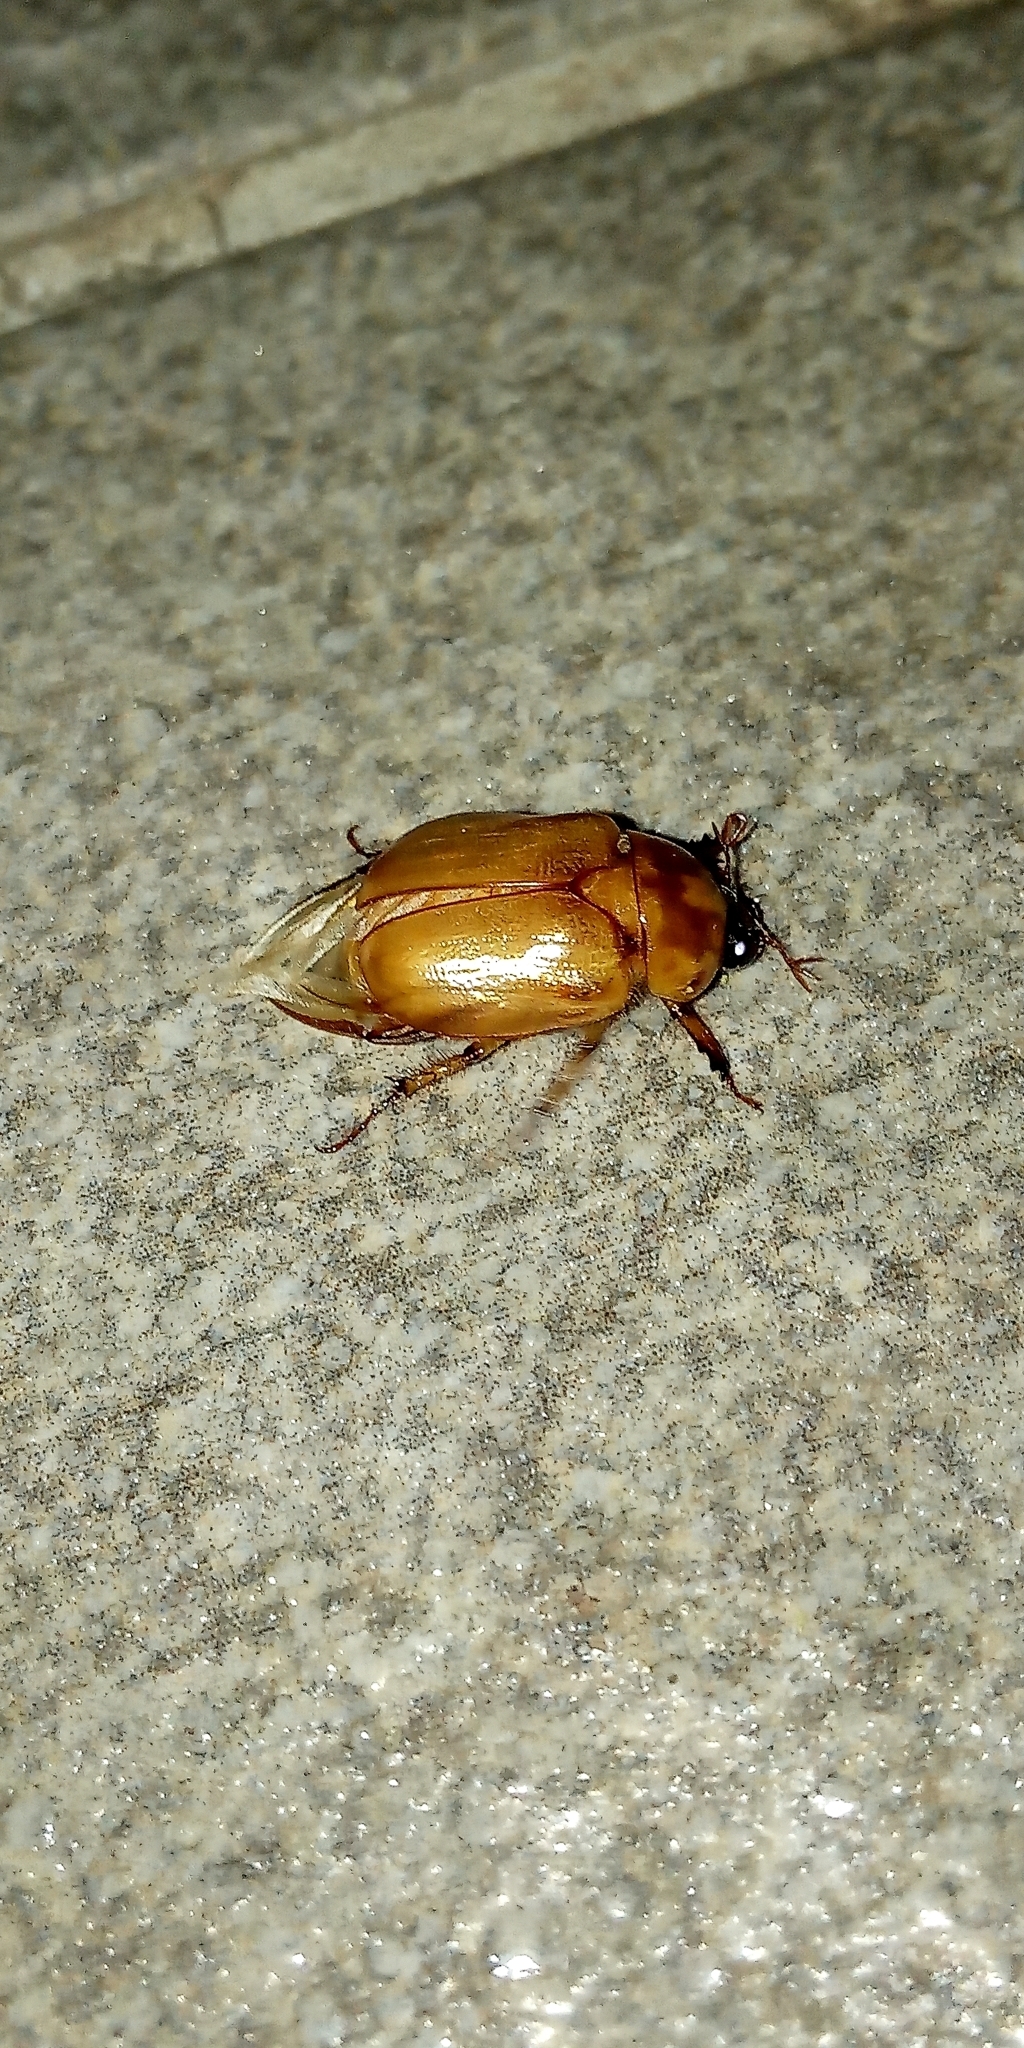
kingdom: Animalia
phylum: Arthropoda
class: Insecta
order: Coleoptera
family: Scarabaeidae
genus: Cyclocephala
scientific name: Cyclocephala signaticollis
